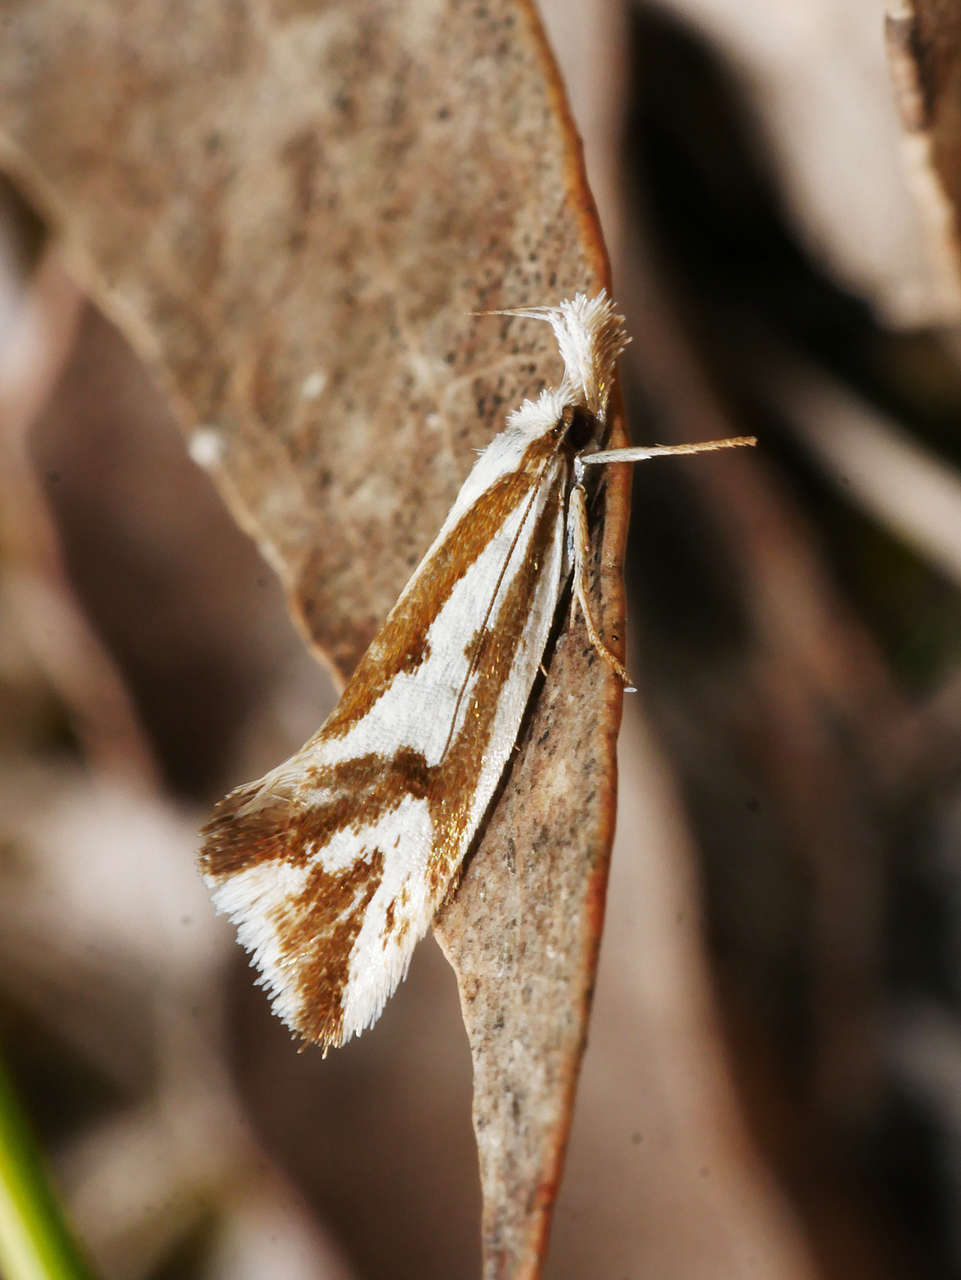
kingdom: Animalia
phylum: Arthropoda
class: Insecta
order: Lepidoptera
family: Oecophoridae
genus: Orthiastis
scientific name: Orthiastis hyperocha
